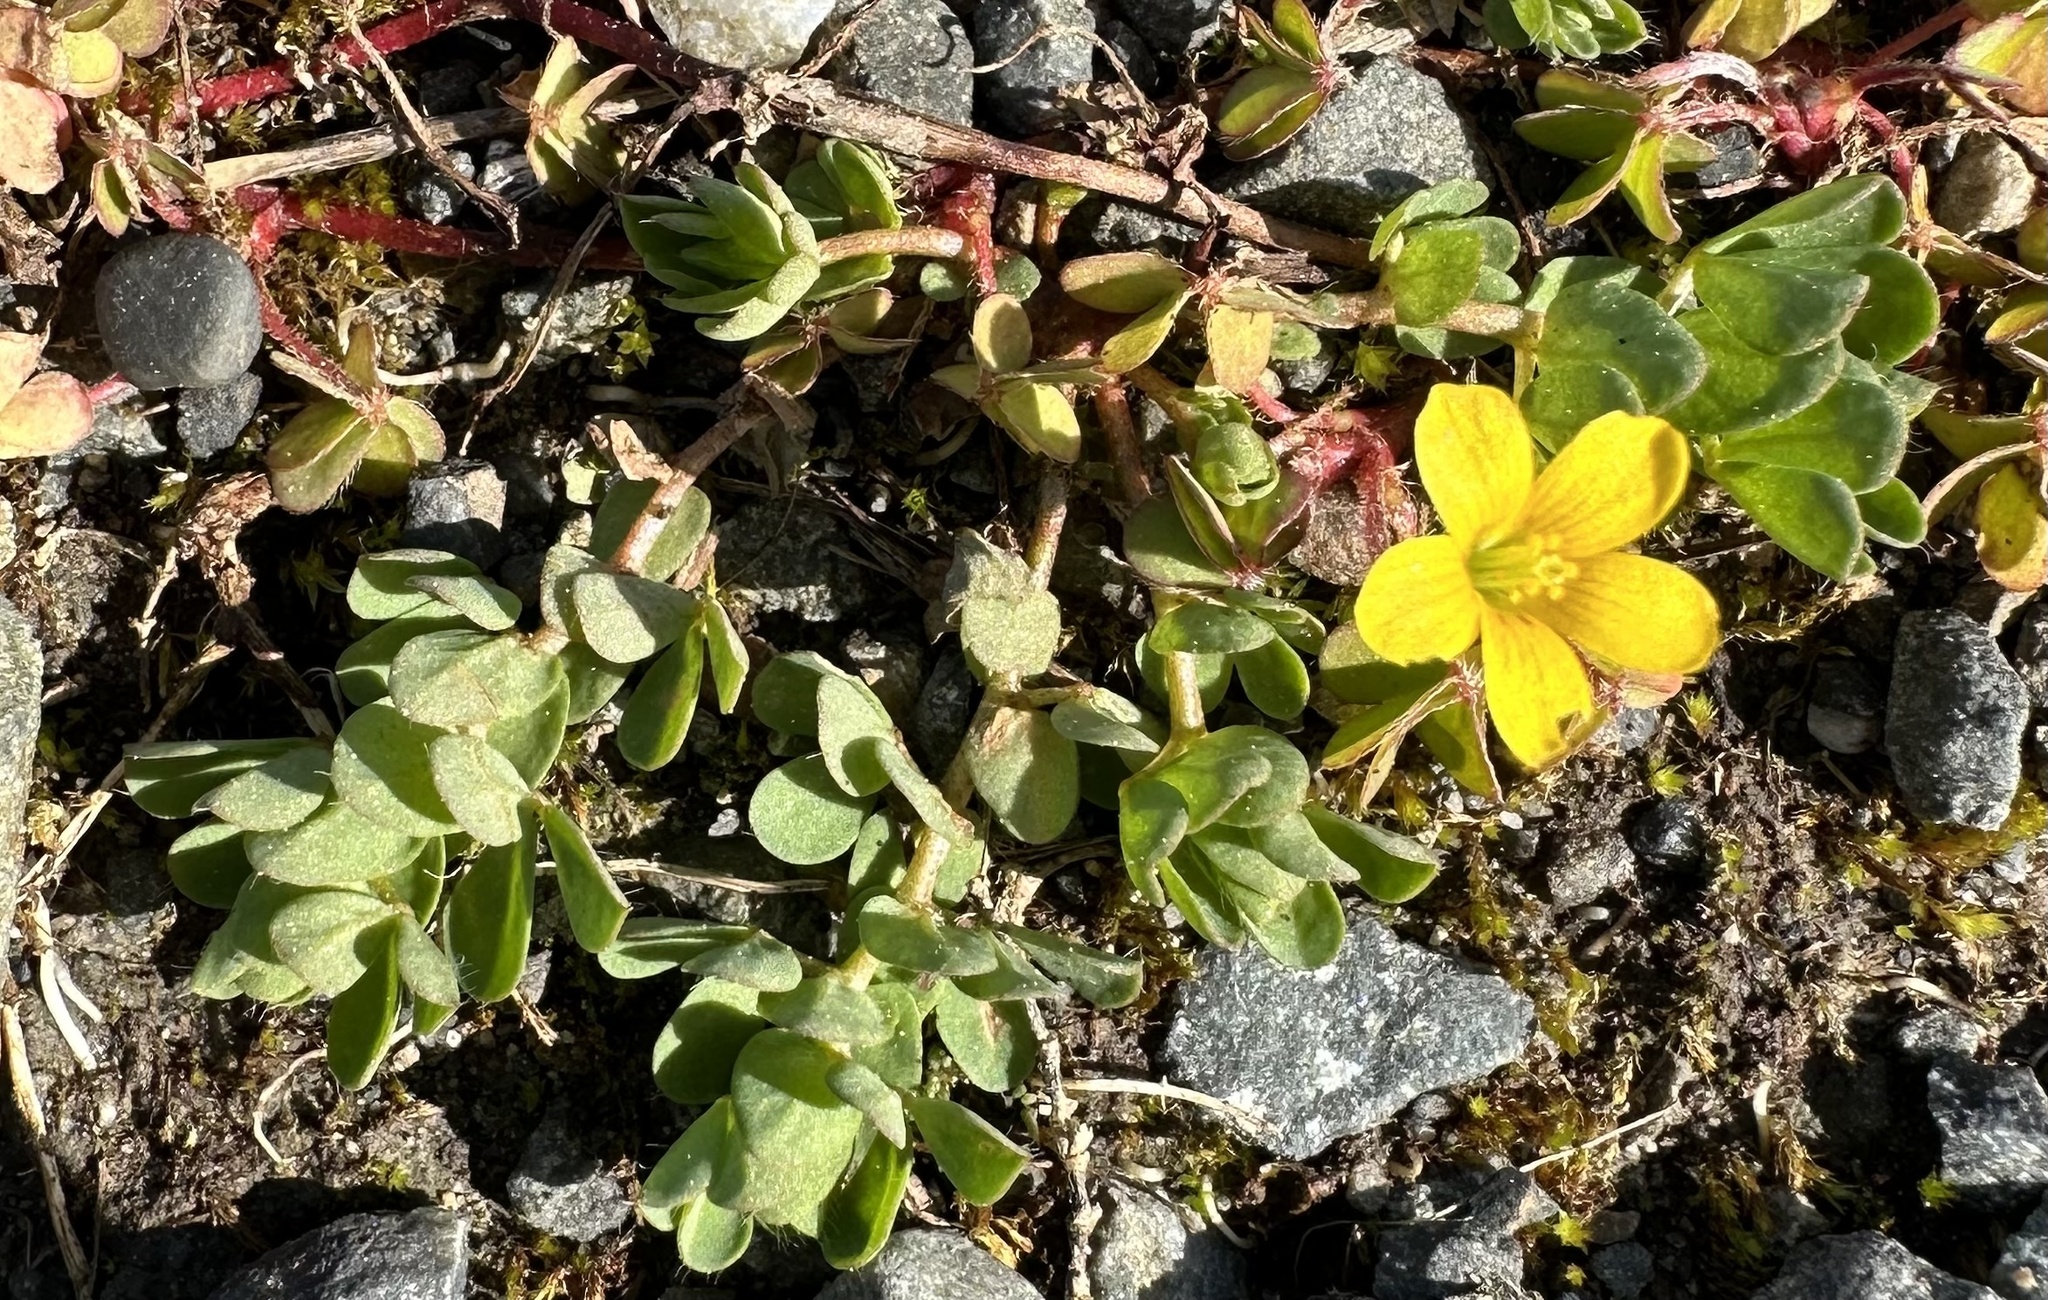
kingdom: Plantae
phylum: Tracheophyta
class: Magnoliopsida
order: Oxalidales
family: Oxalidaceae
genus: Oxalis
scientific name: Oxalis exilis
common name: Least yellow-sorrel
